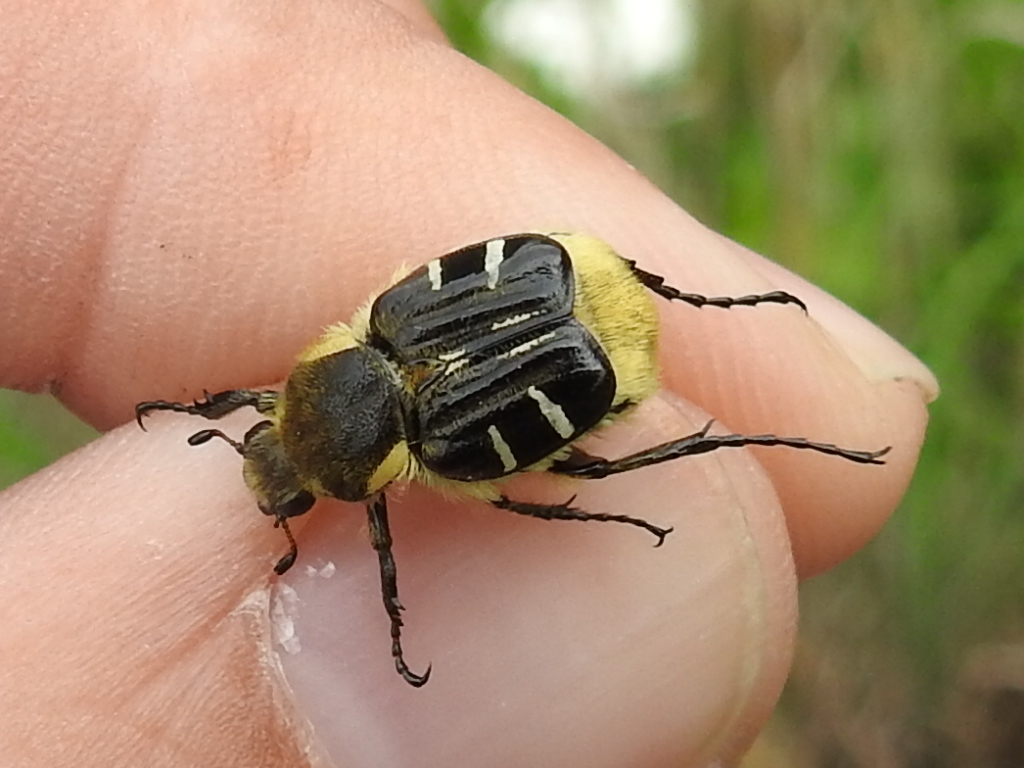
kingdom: Animalia
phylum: Arthropoda
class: Insecta
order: Coleoptera
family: Scarabaeidae
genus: Trichiotinus
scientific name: Trichiotinus texanus
